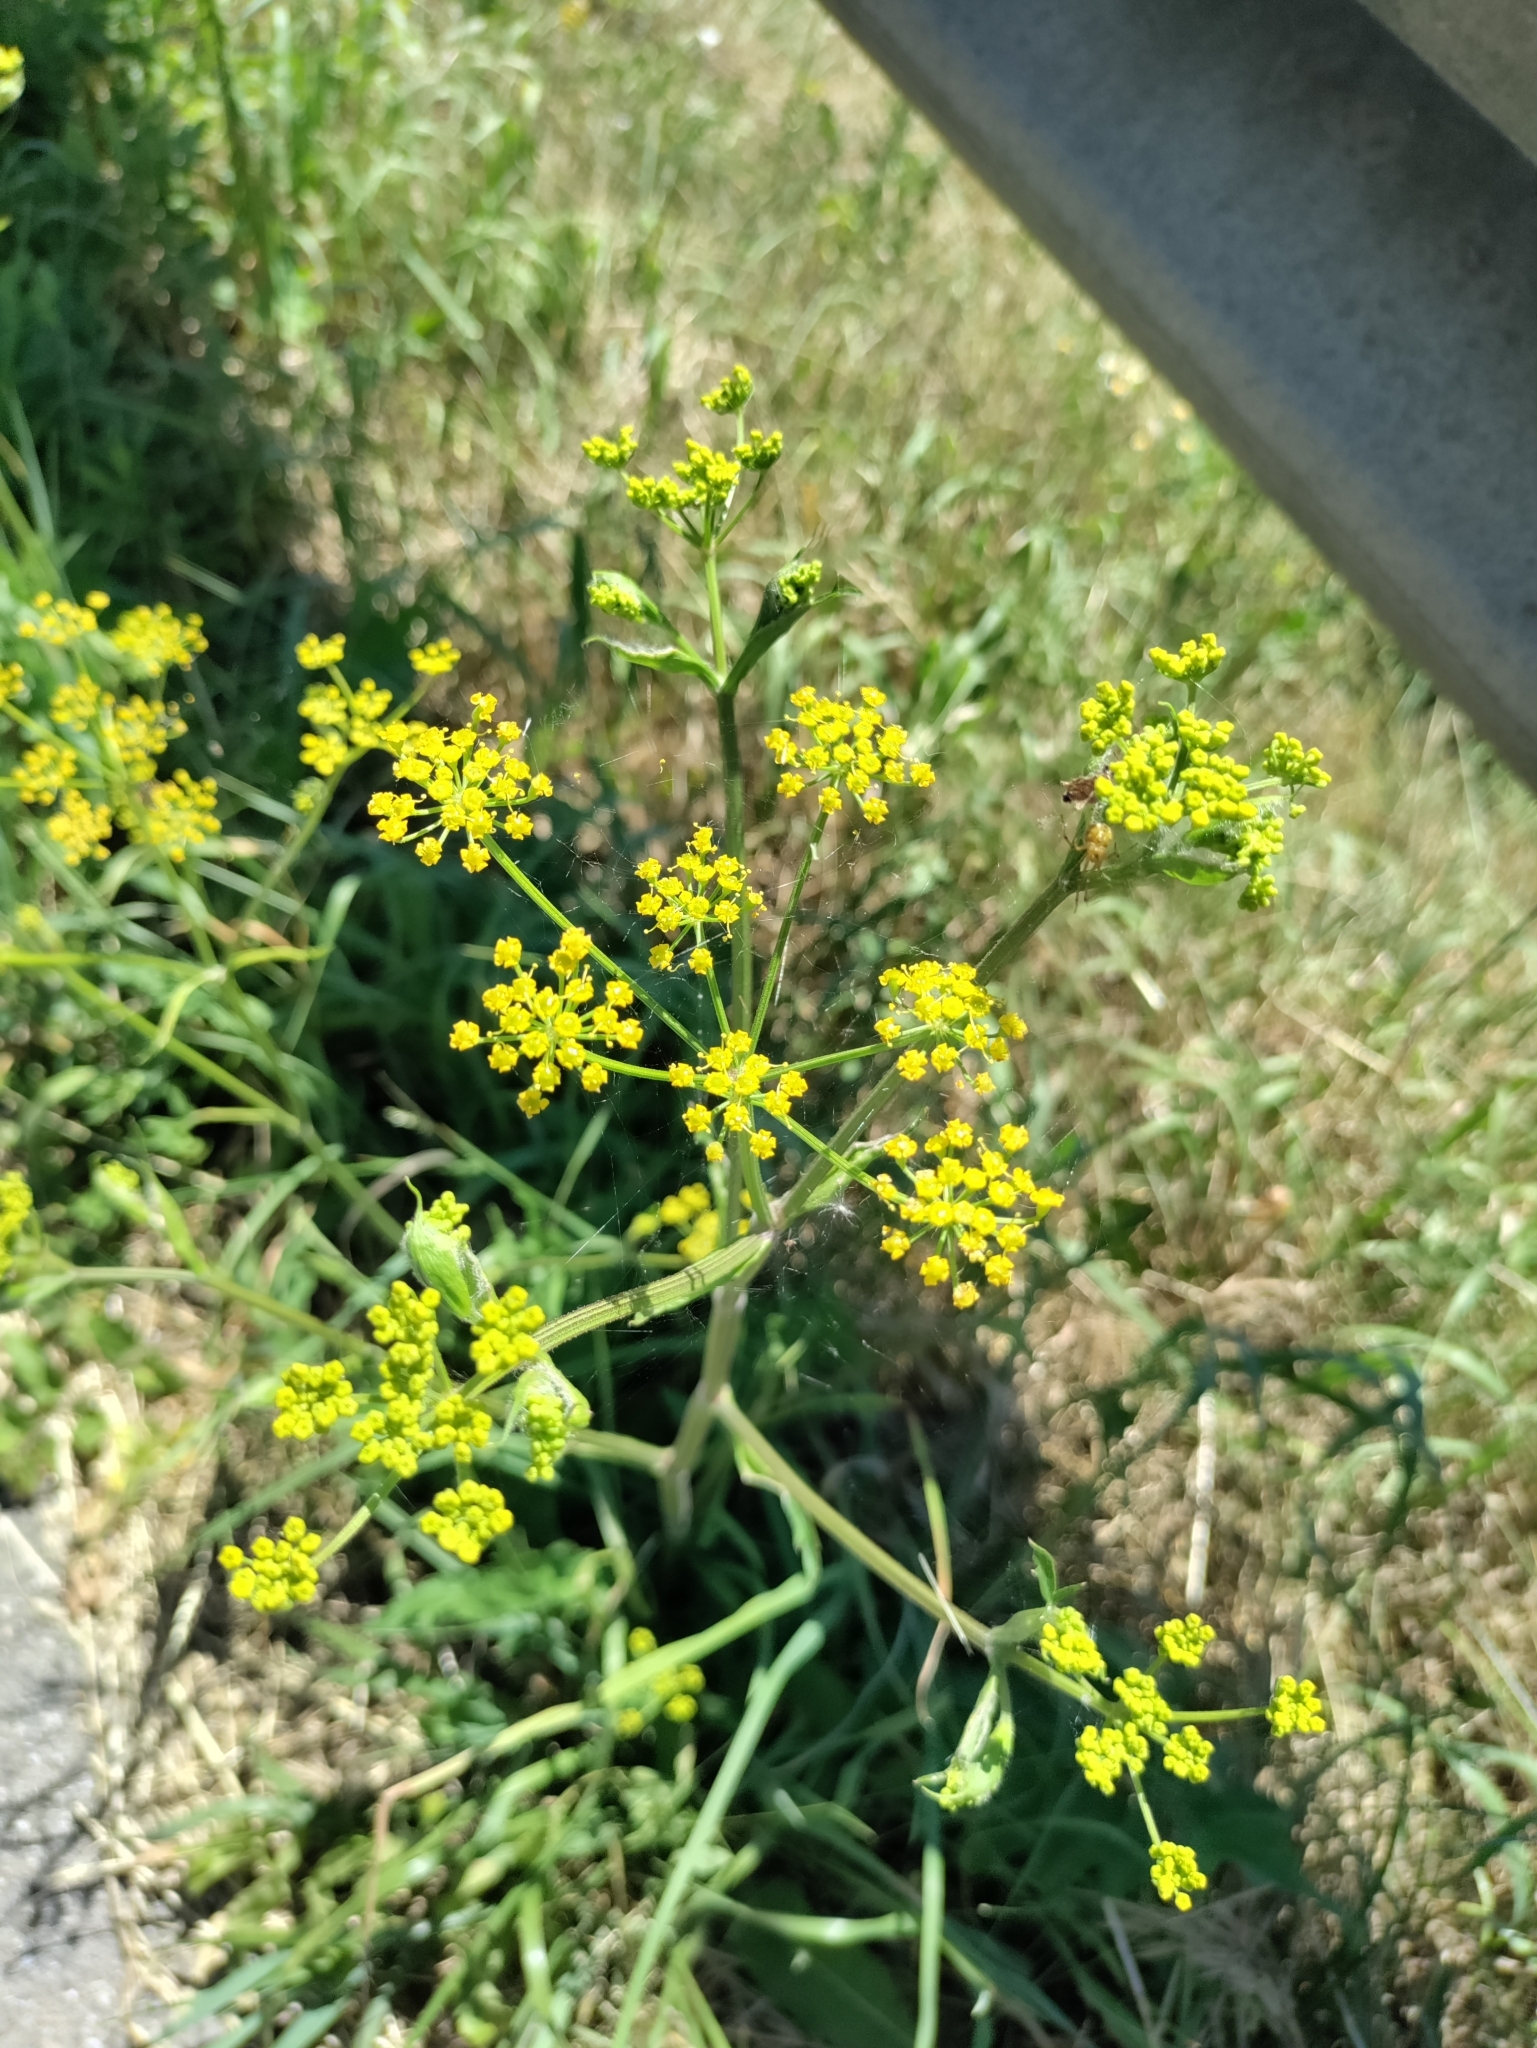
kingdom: Plantae
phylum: Tracheophyta
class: Magnoliopsida
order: Apiales
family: Apiaceae
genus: Pastinaca
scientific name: Pastinaca sativa
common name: Wild parsnip
